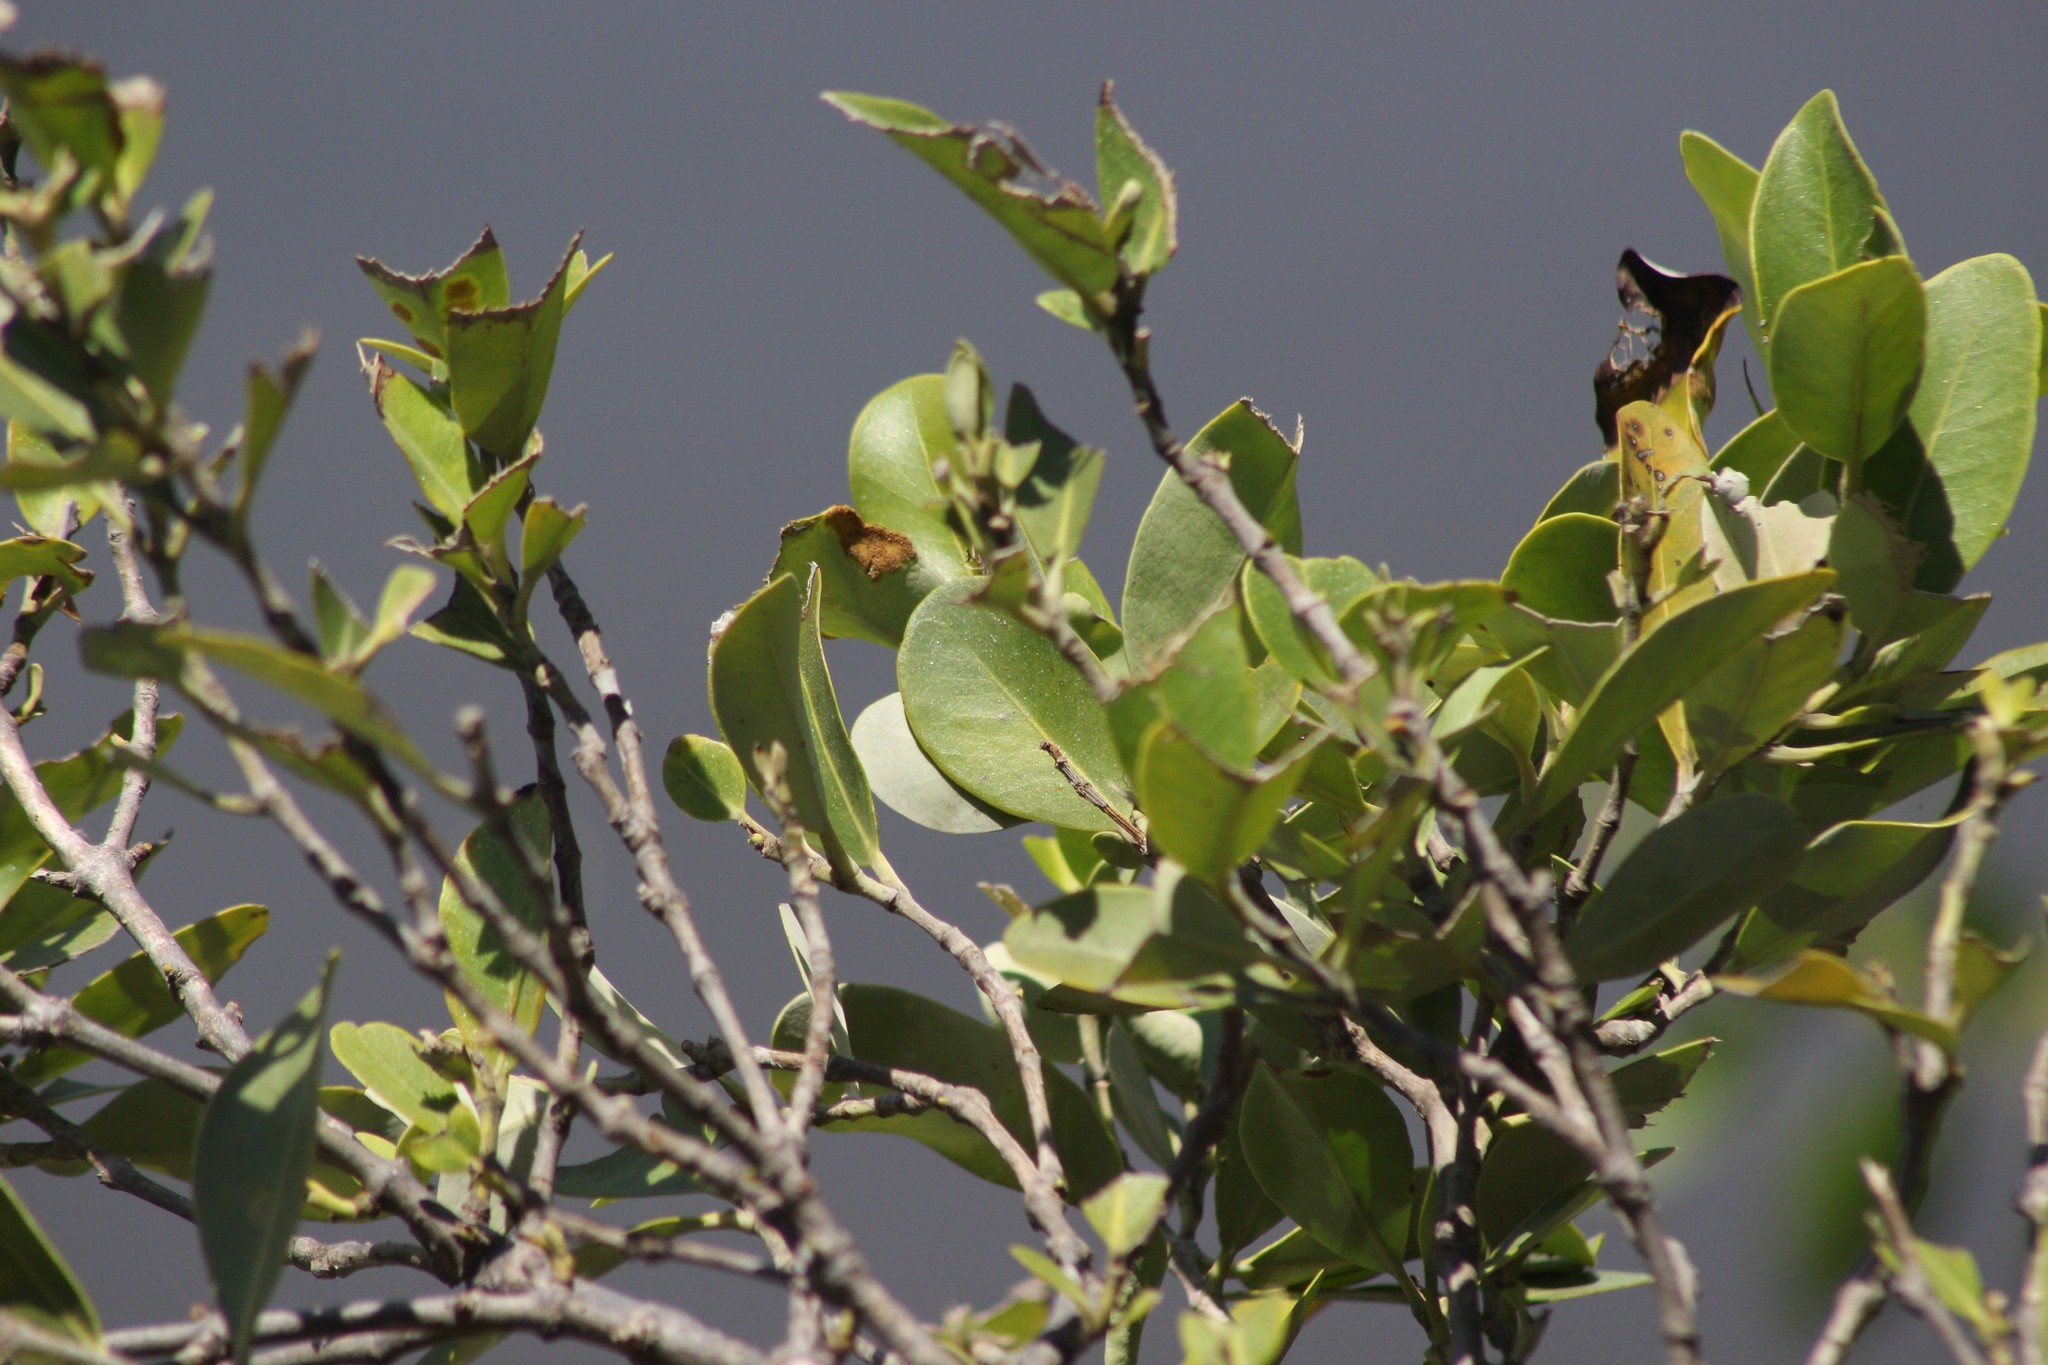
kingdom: Plantae
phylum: Tracheophyta
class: Magnoliopsida
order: Lamiales
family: Acanthaceae
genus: Avicennia
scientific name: Avicennia germinans
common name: Black mangrove
